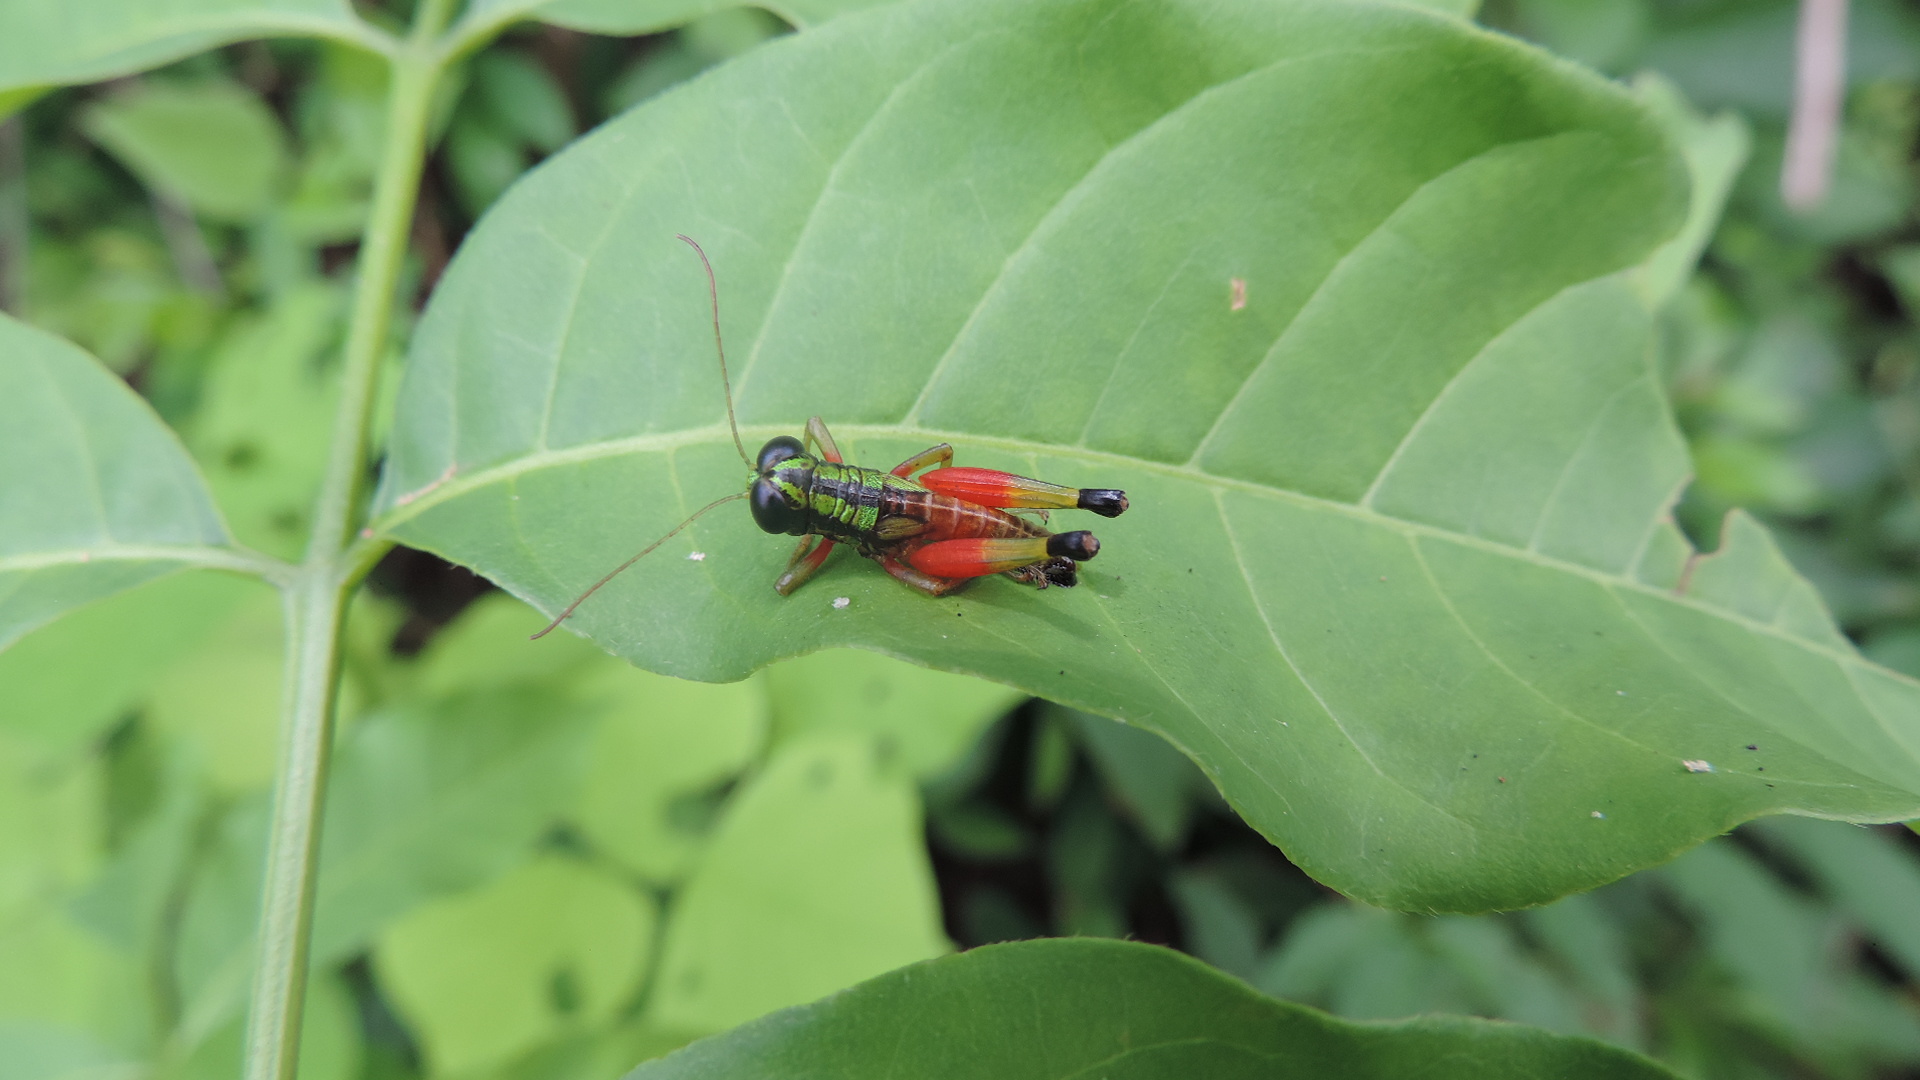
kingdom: Animalia
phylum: Arthropoda
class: Insecta
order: Orthoptera
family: Romaleidae
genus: Taeniophorella
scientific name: Taeniophorella pulchripes
